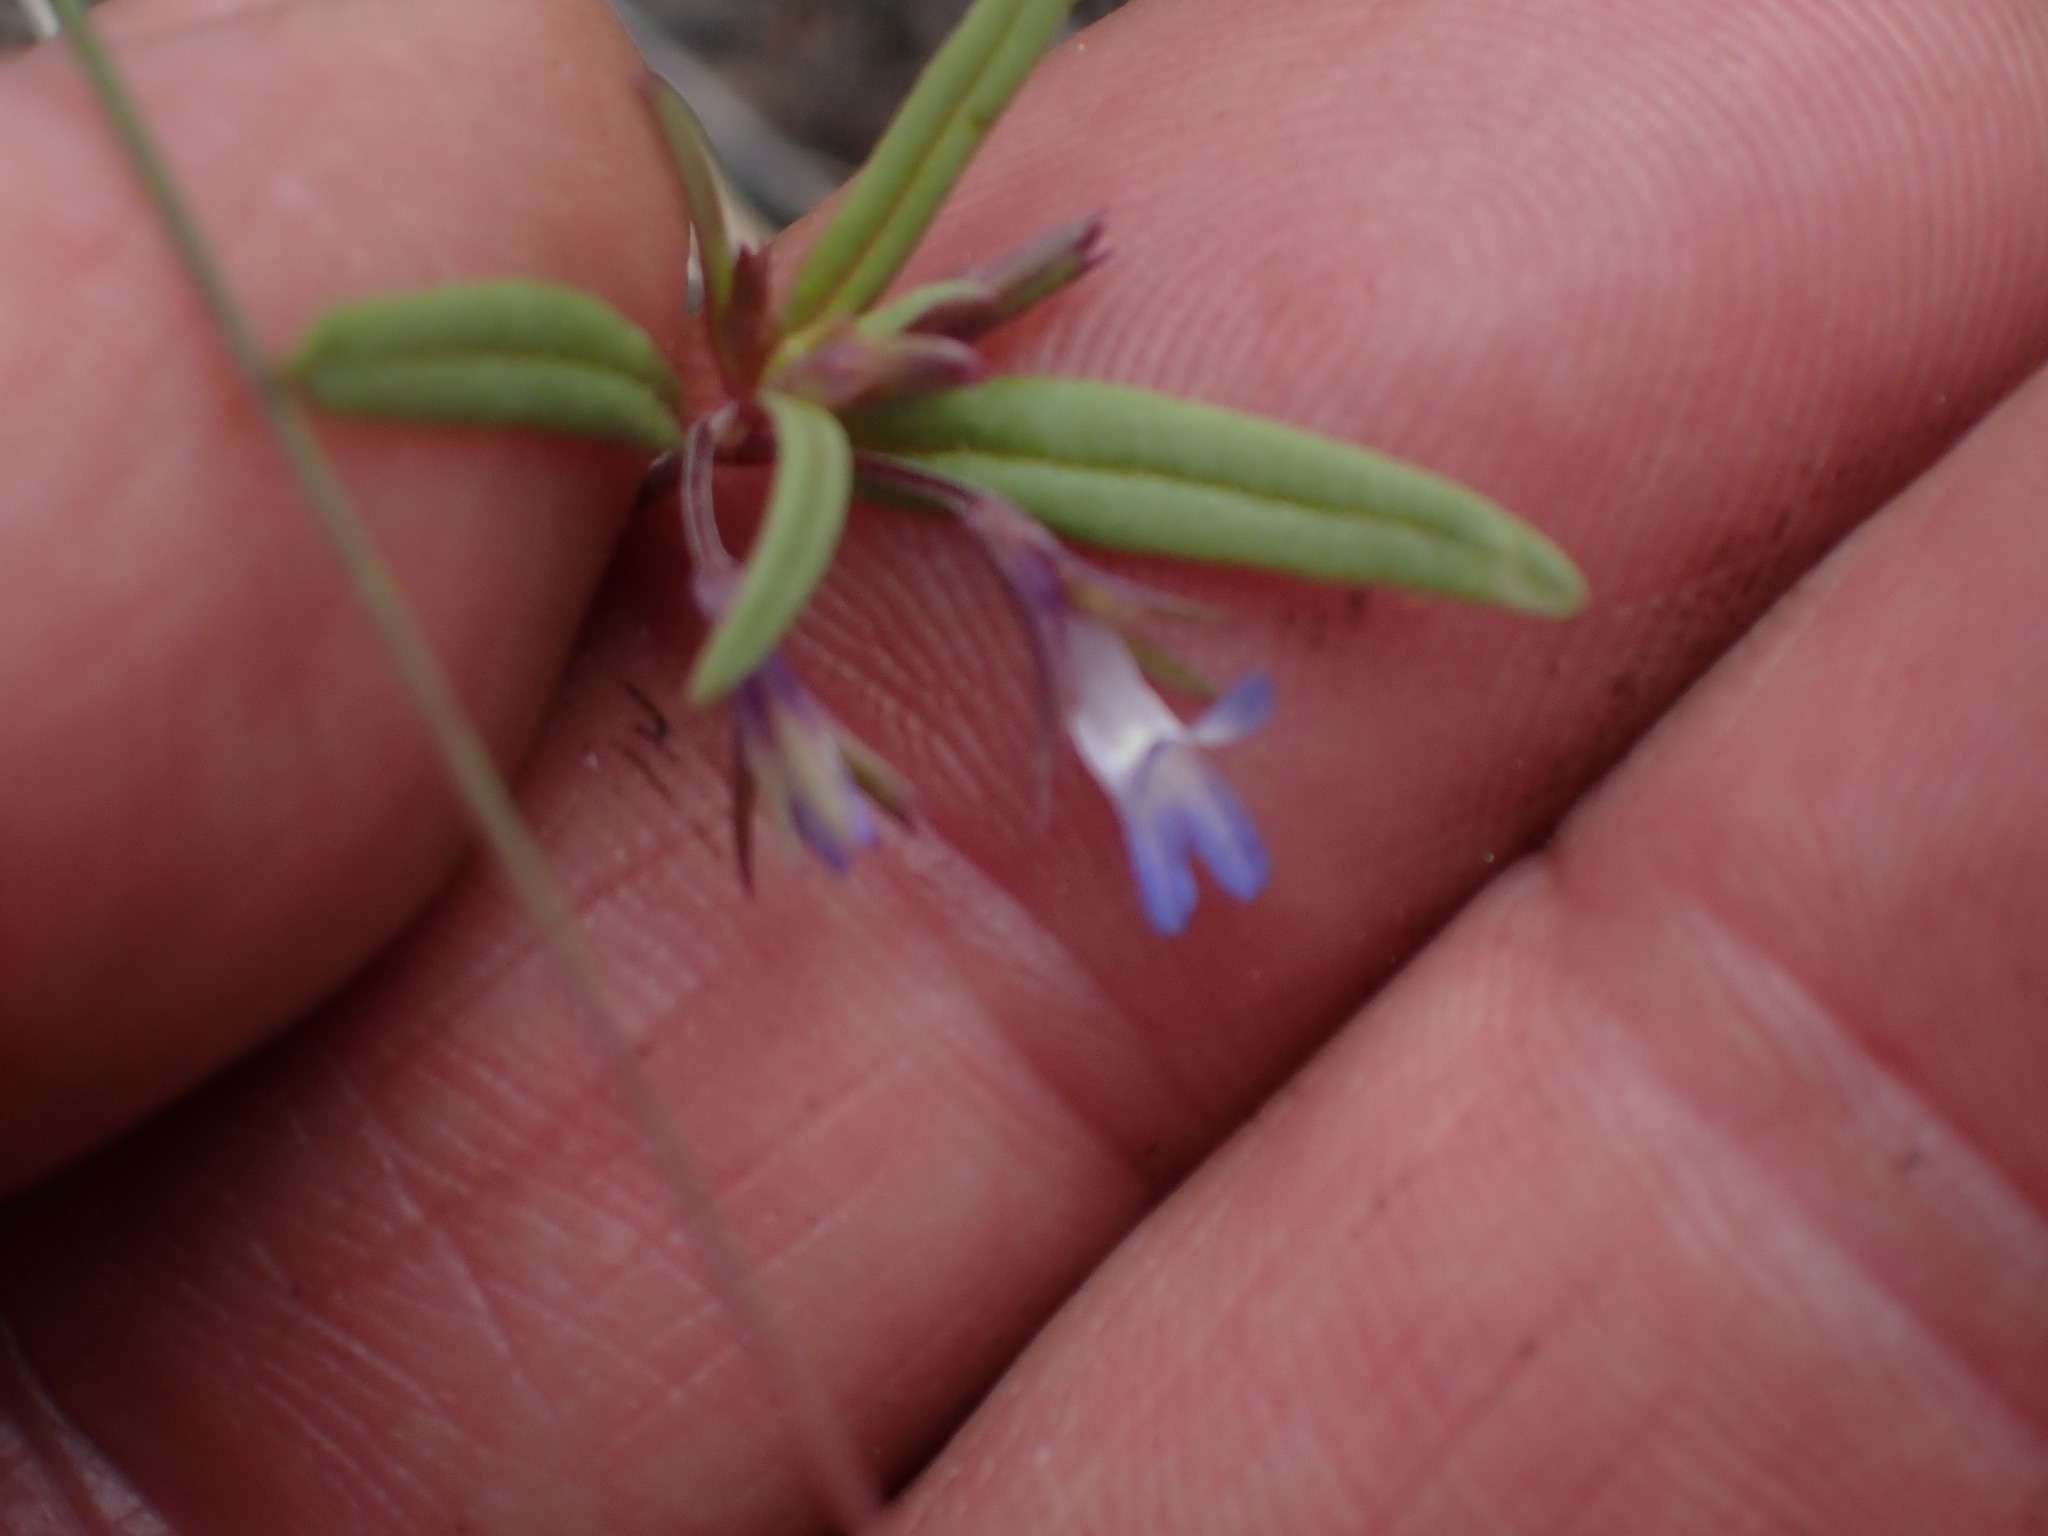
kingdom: Plantae
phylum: Tracheophyta
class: Magnoliopsida
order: Lamiales
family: Plantaginaceae
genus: Collinsia
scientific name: Collinsia parviflora
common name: Blue-lips
